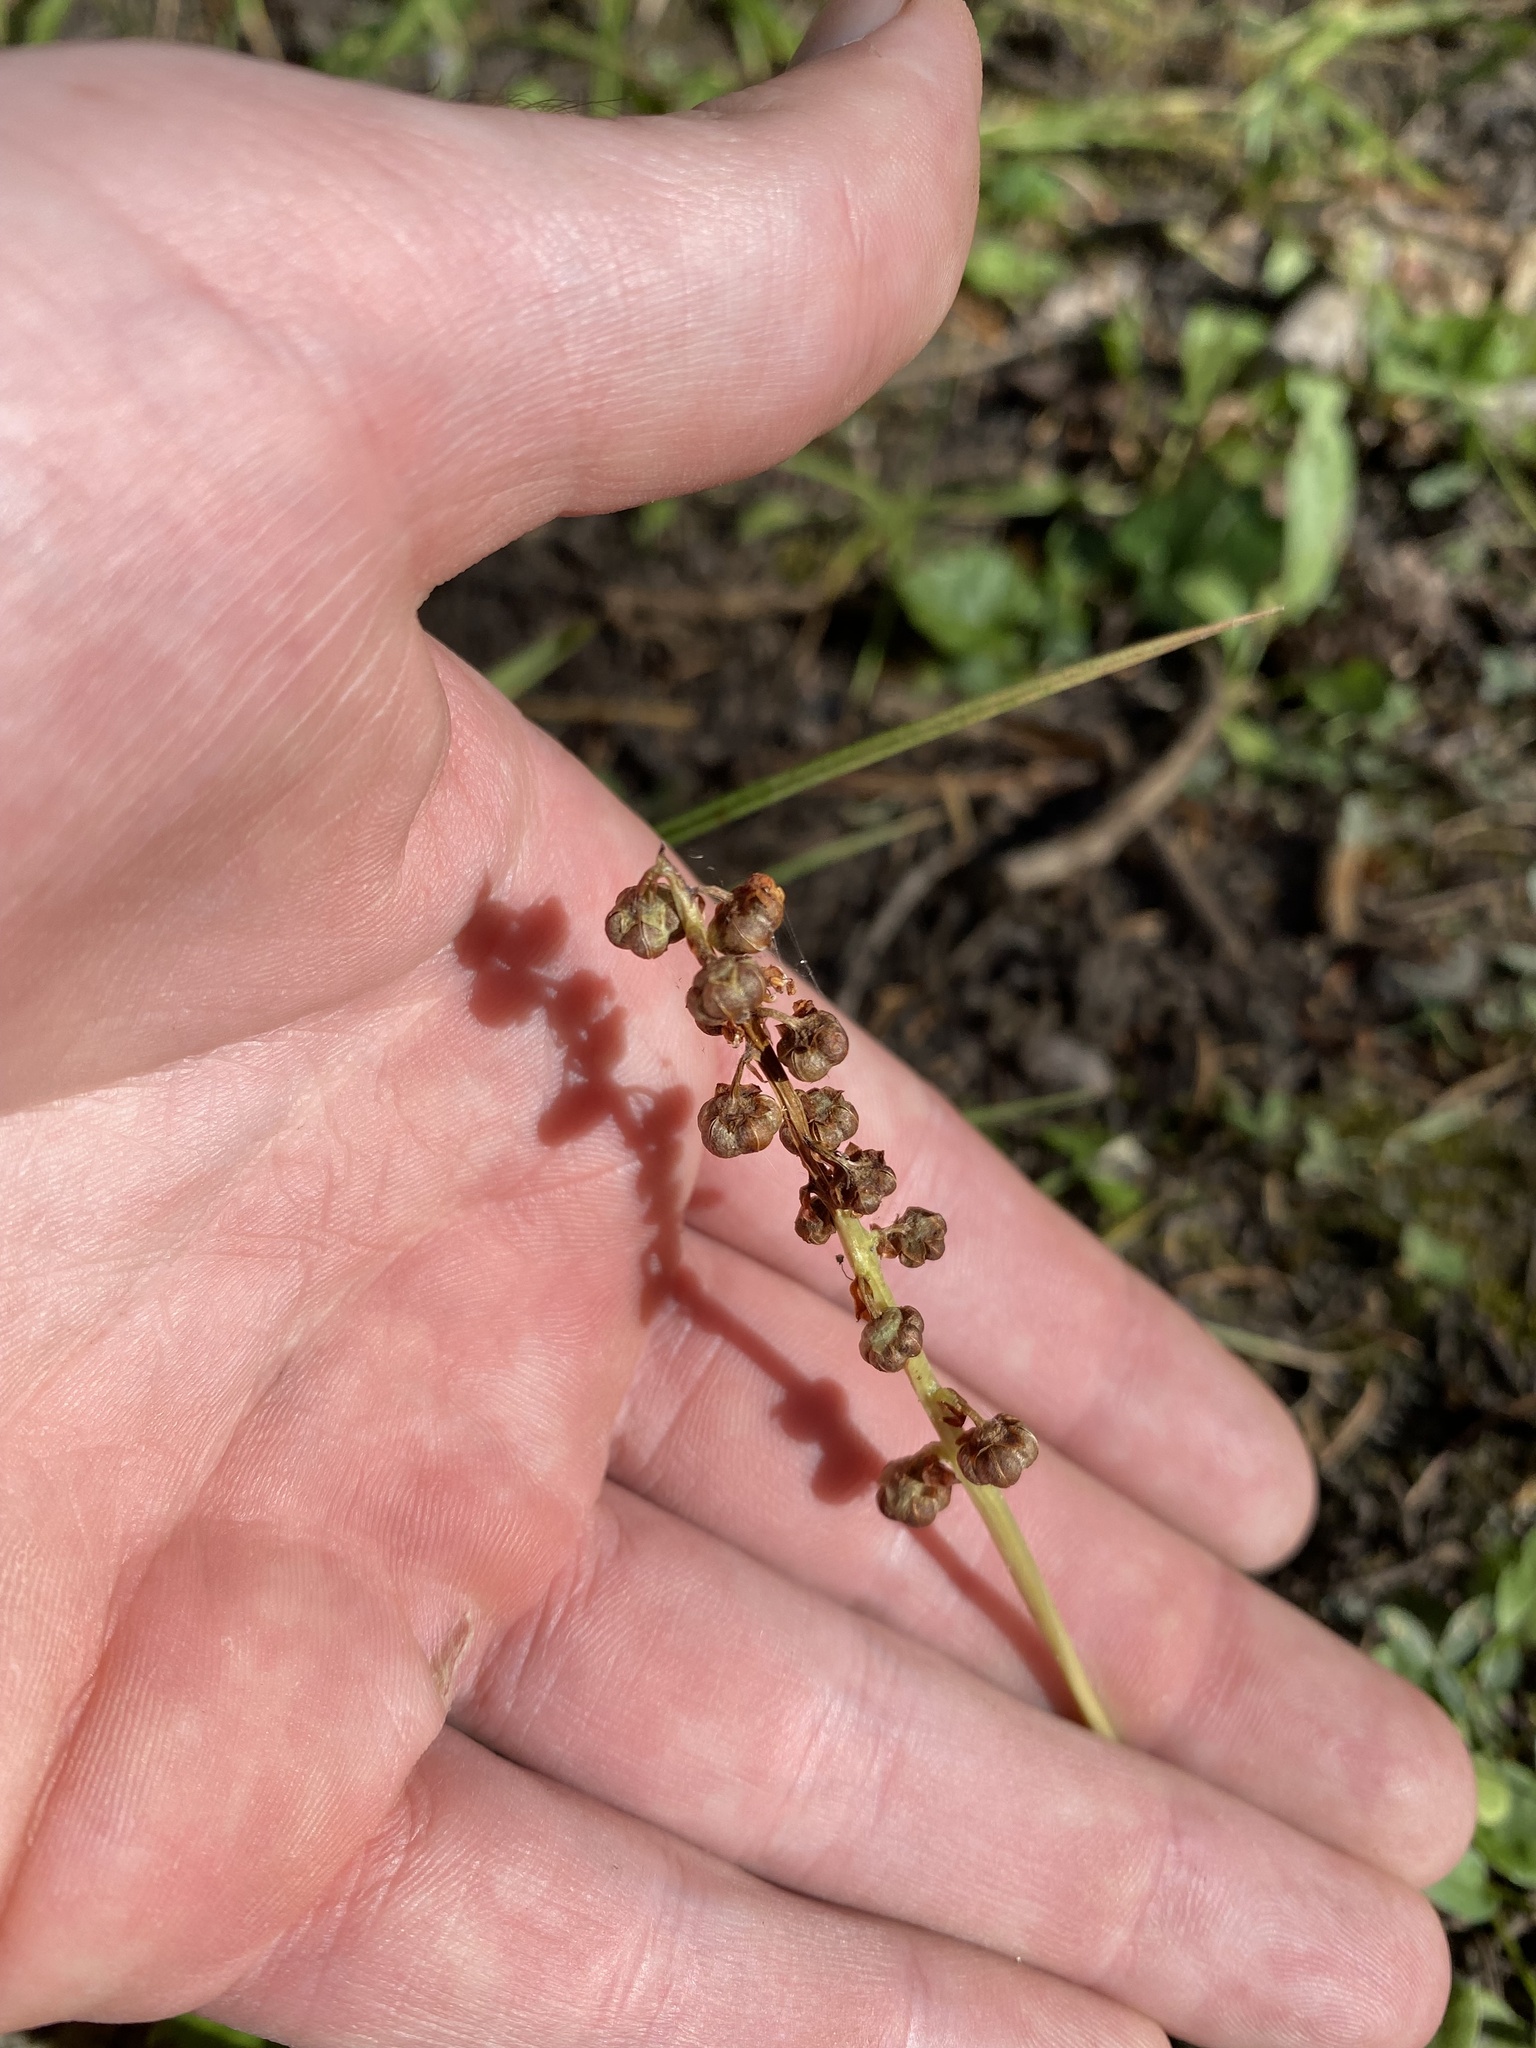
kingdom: Plantae
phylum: Tracheophyta
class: Magnoliopsida
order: Ericales
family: Ericaceae
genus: Pyrola
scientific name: Pyrola minor
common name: Common wintergreen
